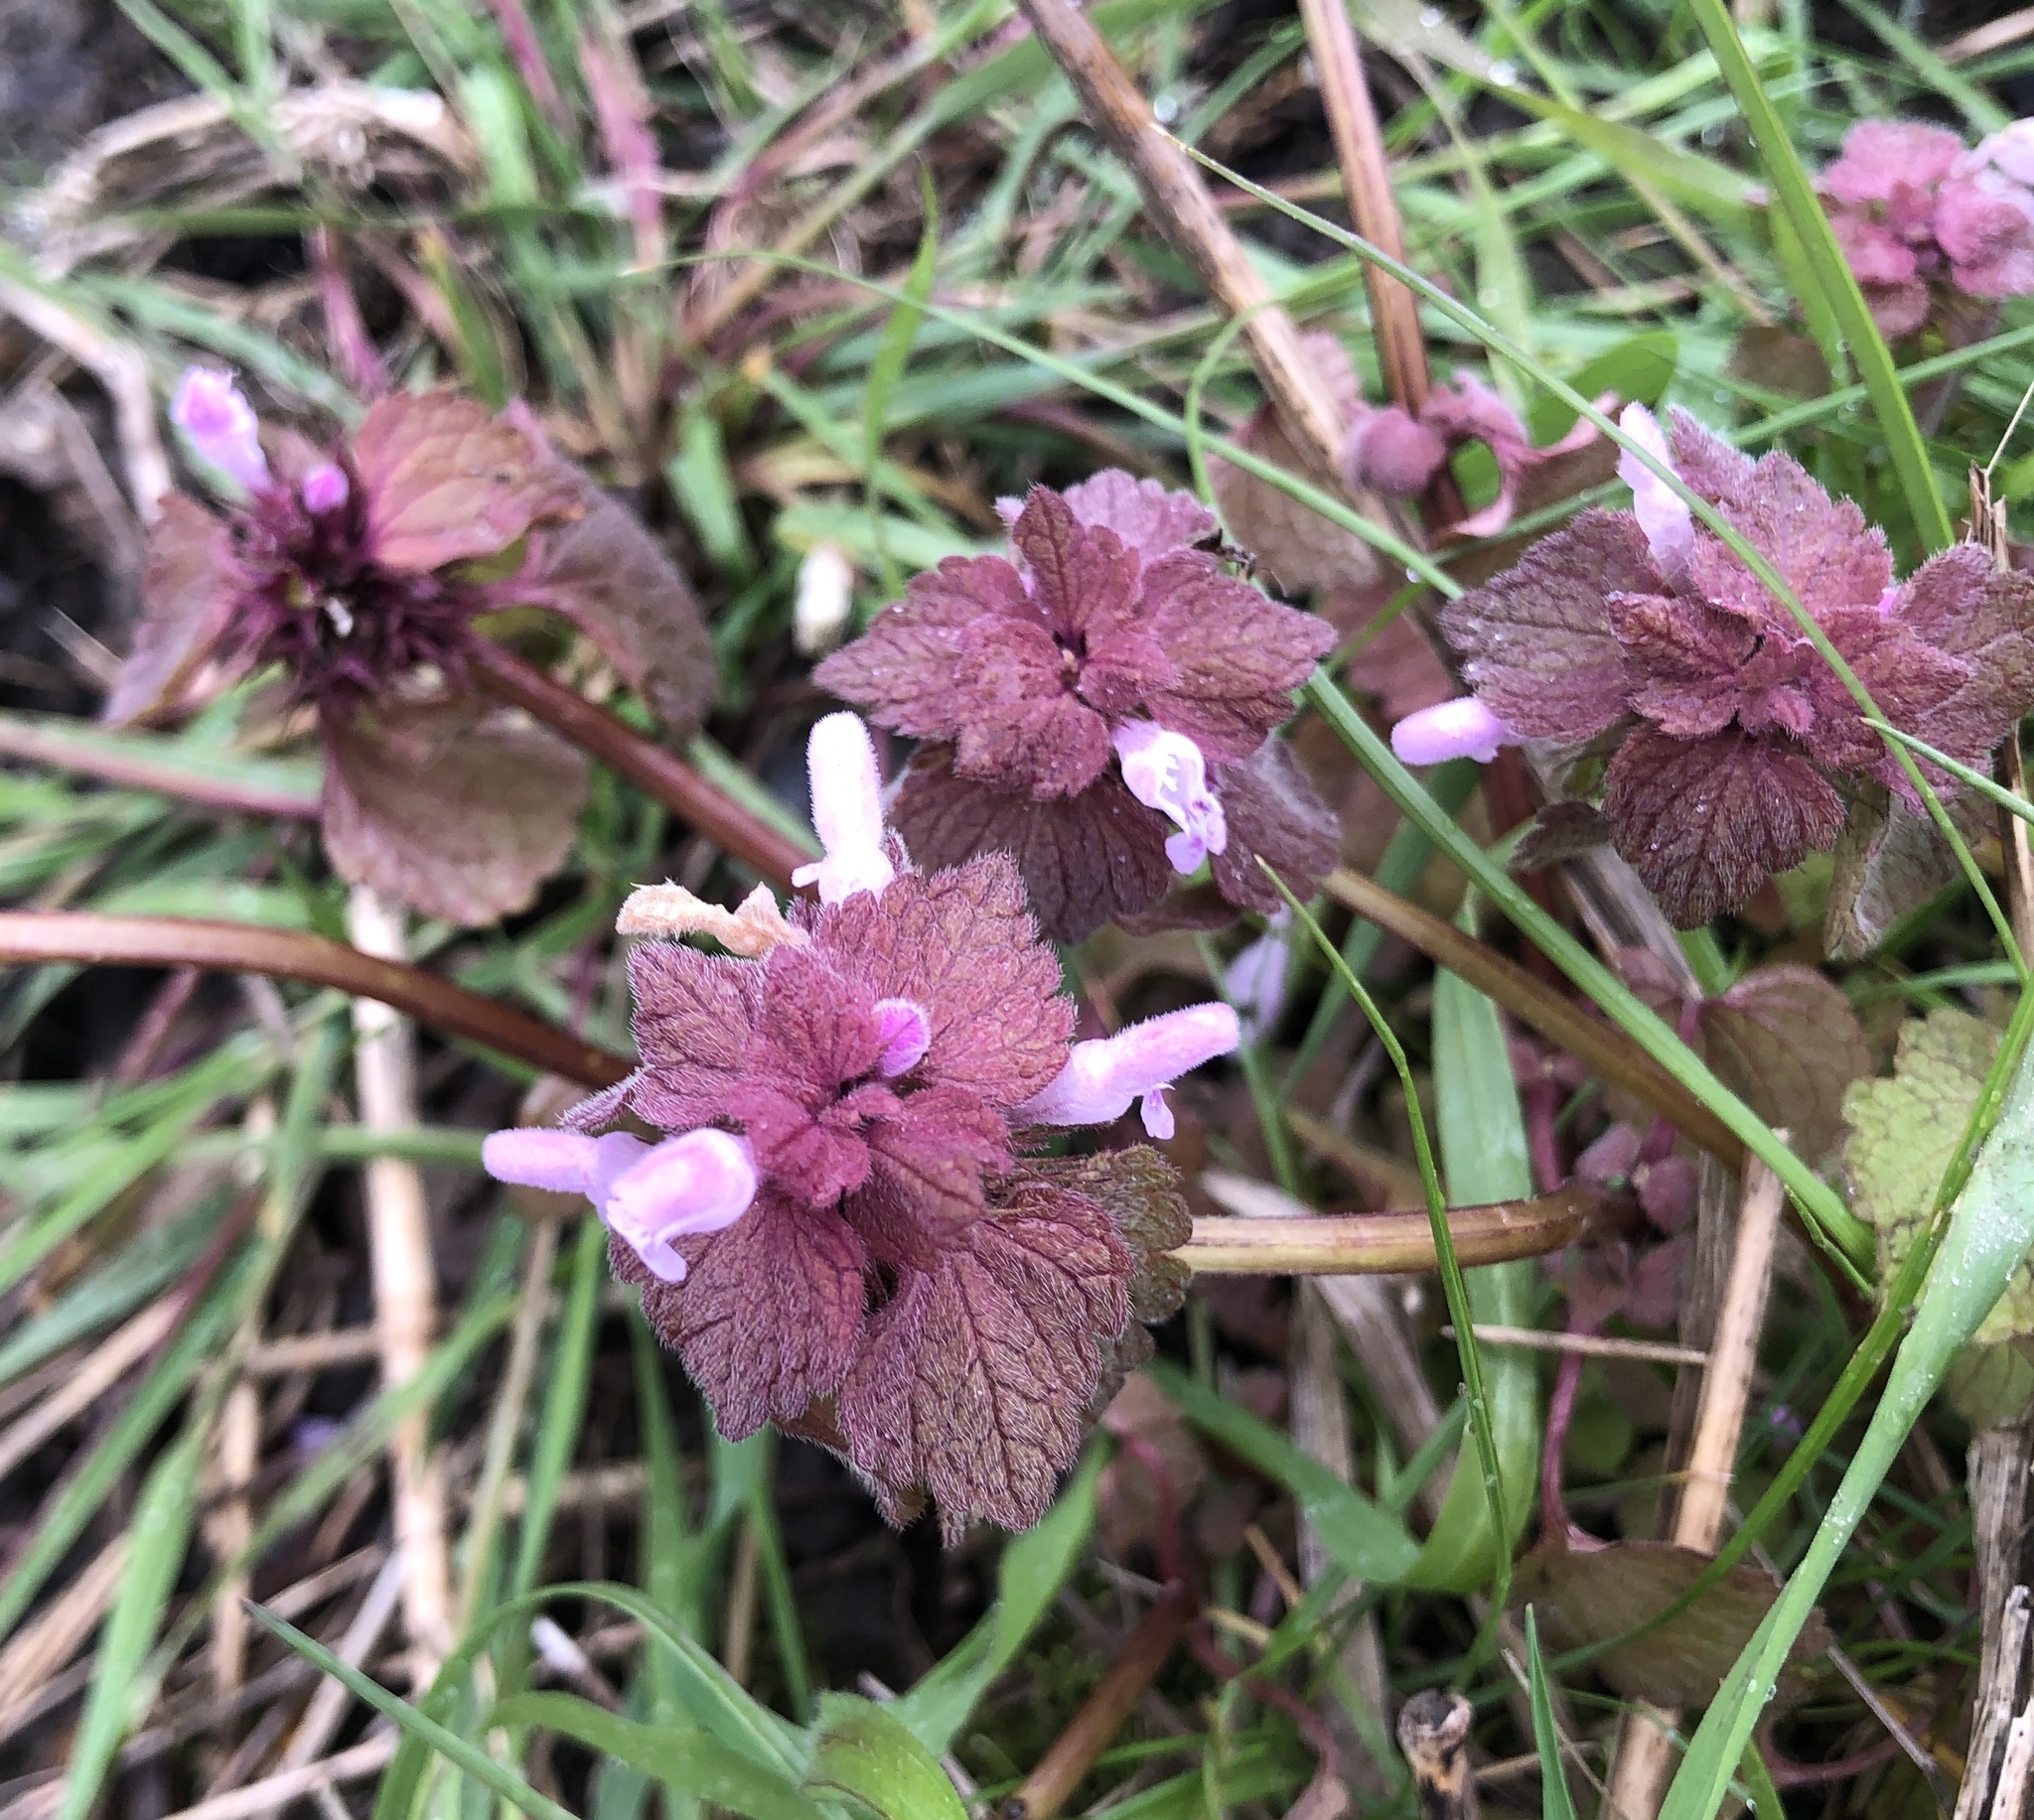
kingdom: Plantae
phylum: Tracheophyta
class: Magnoliopsida
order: Lamiales
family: Lamiaceae
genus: Lamium
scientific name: Lamium purpureum
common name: Red dead-nettle
